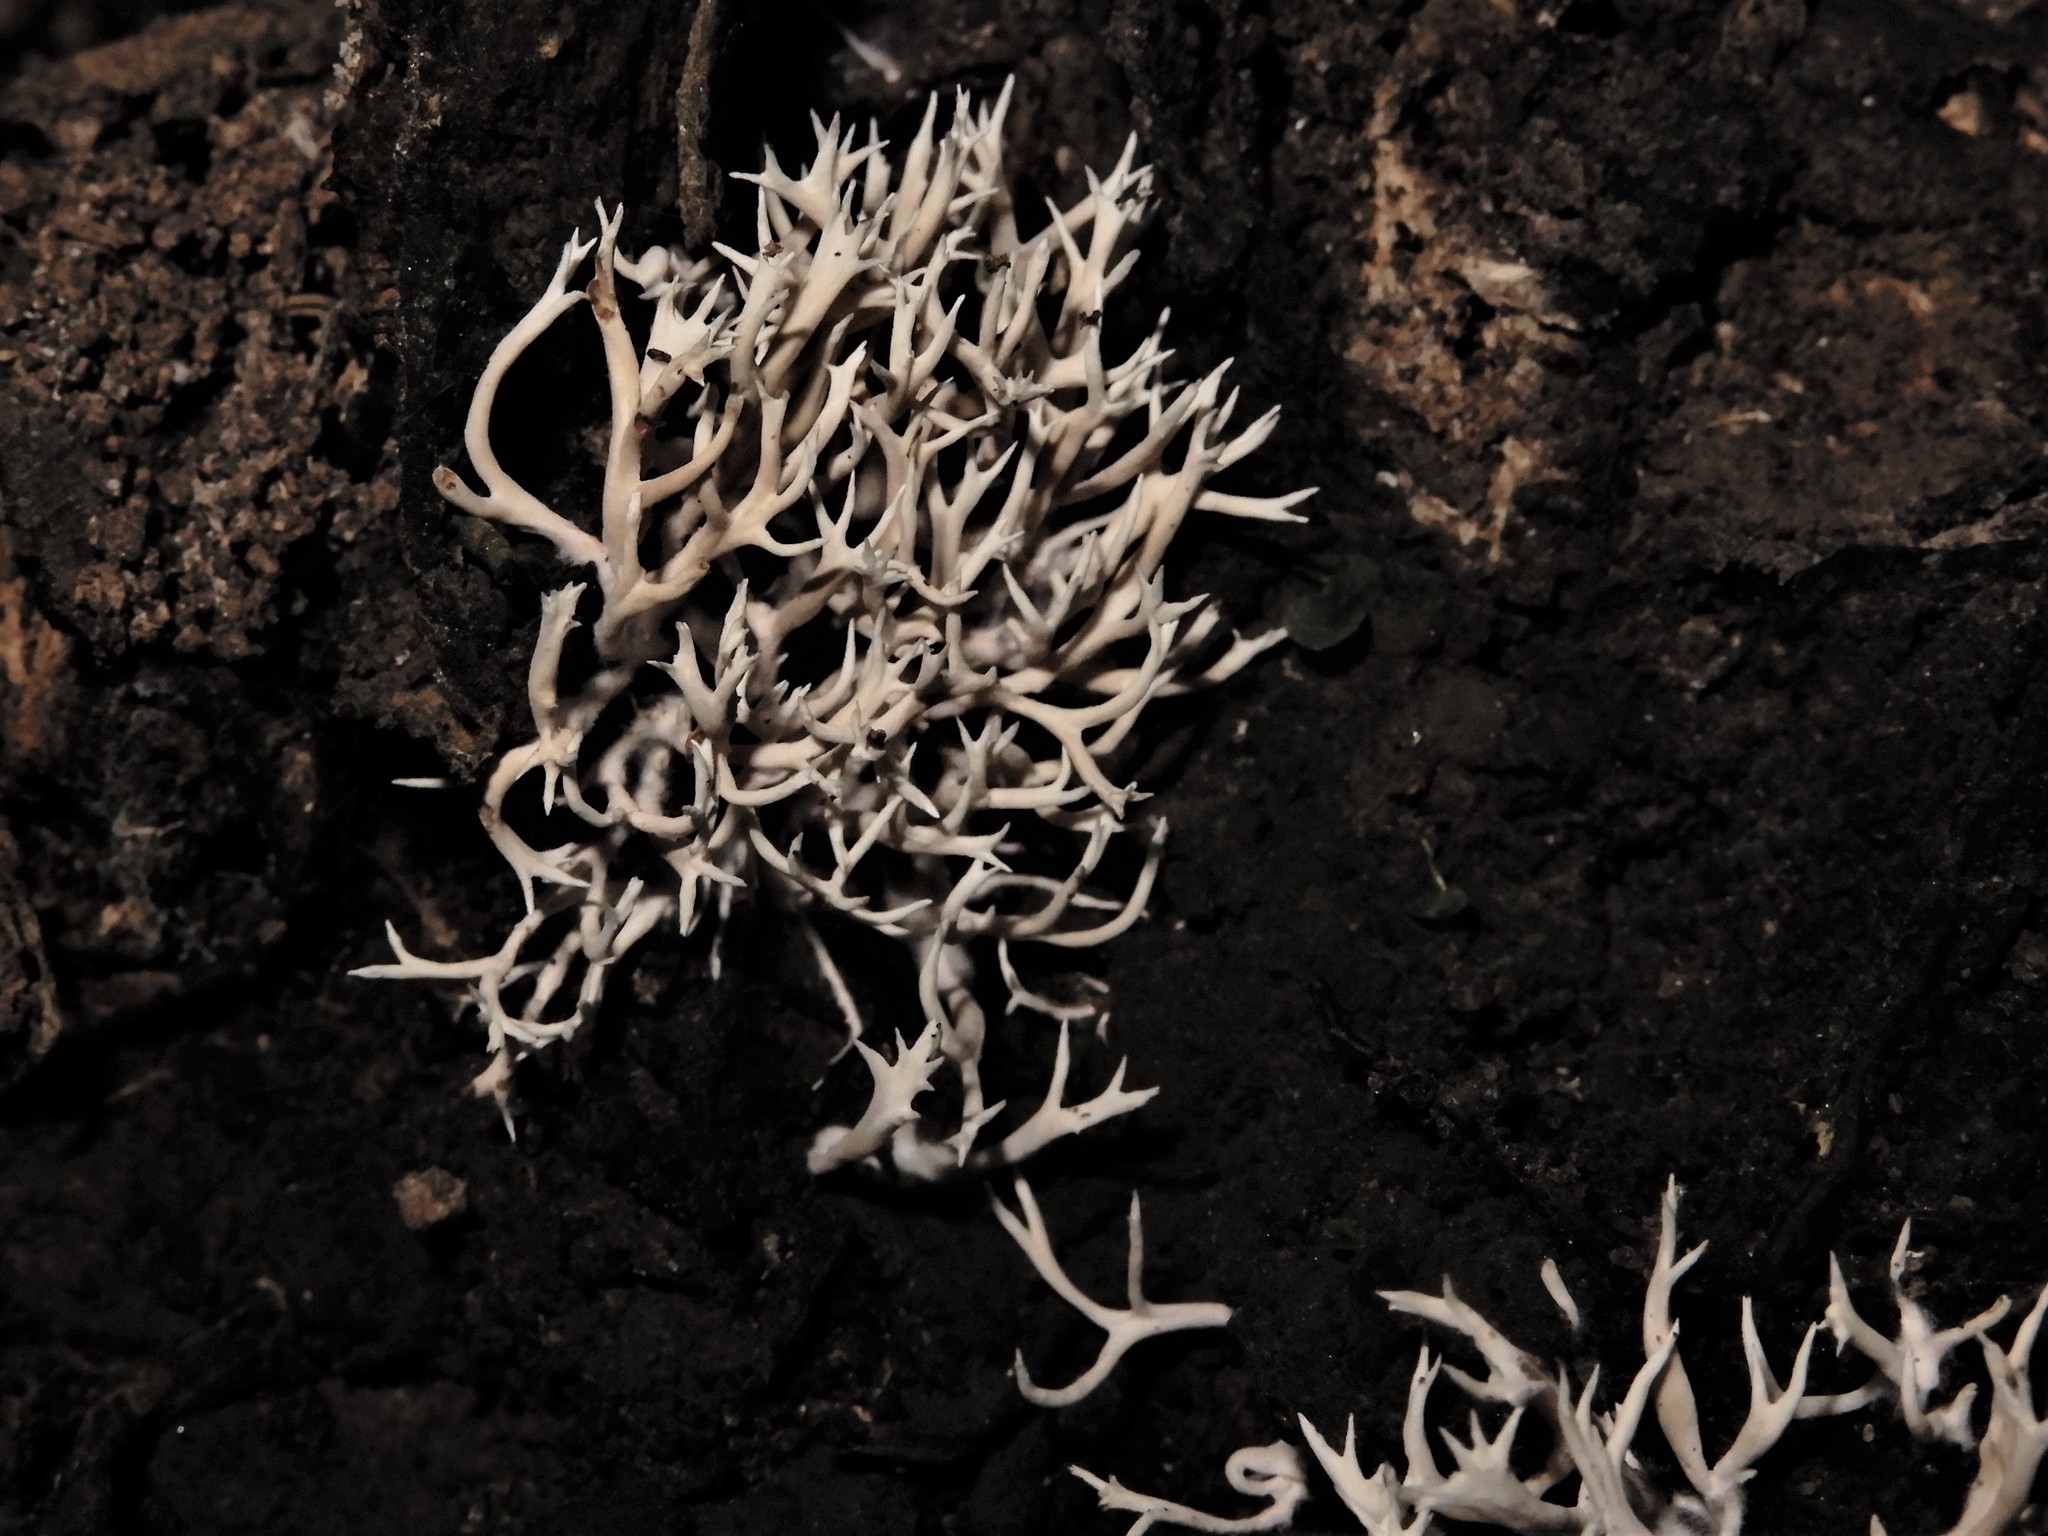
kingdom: Fungi
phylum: Basidiomycota
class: Agaricomycetes
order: Gomphales
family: Lentariaceae
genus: Lentaria
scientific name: Lentaria glaucosiccescens
